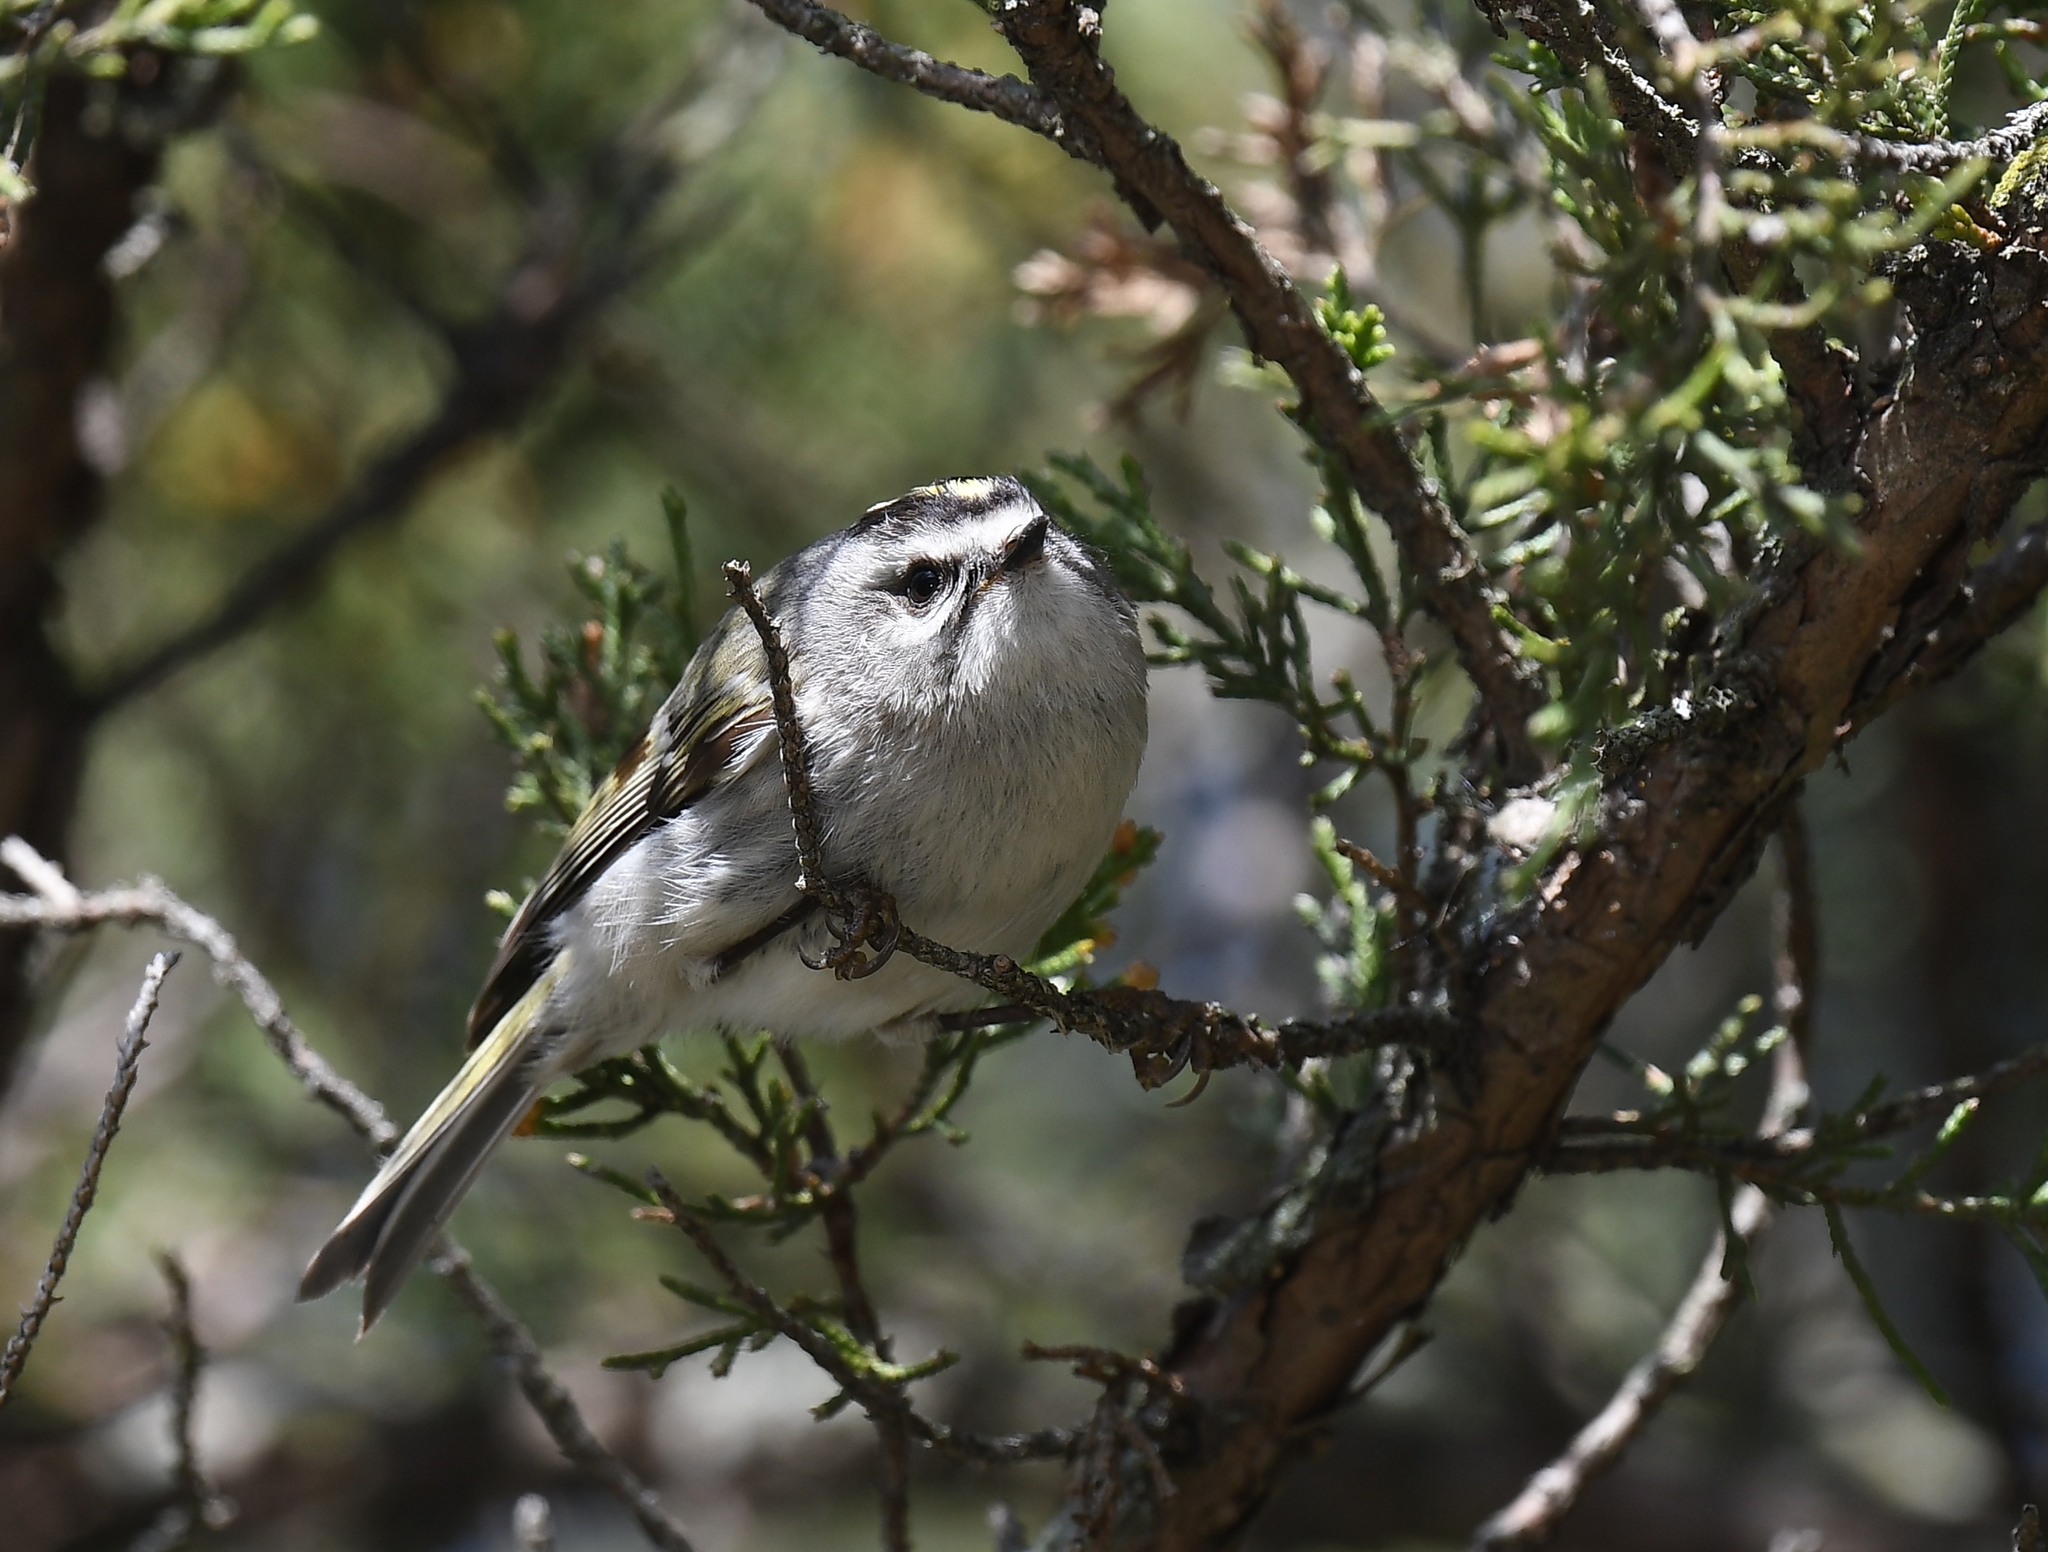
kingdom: Animalia
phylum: Chordata
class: Aves
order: Passeriformes
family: Regulidae
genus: Regulus
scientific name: Regulus satrapa
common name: Golden-crowned kinglet
